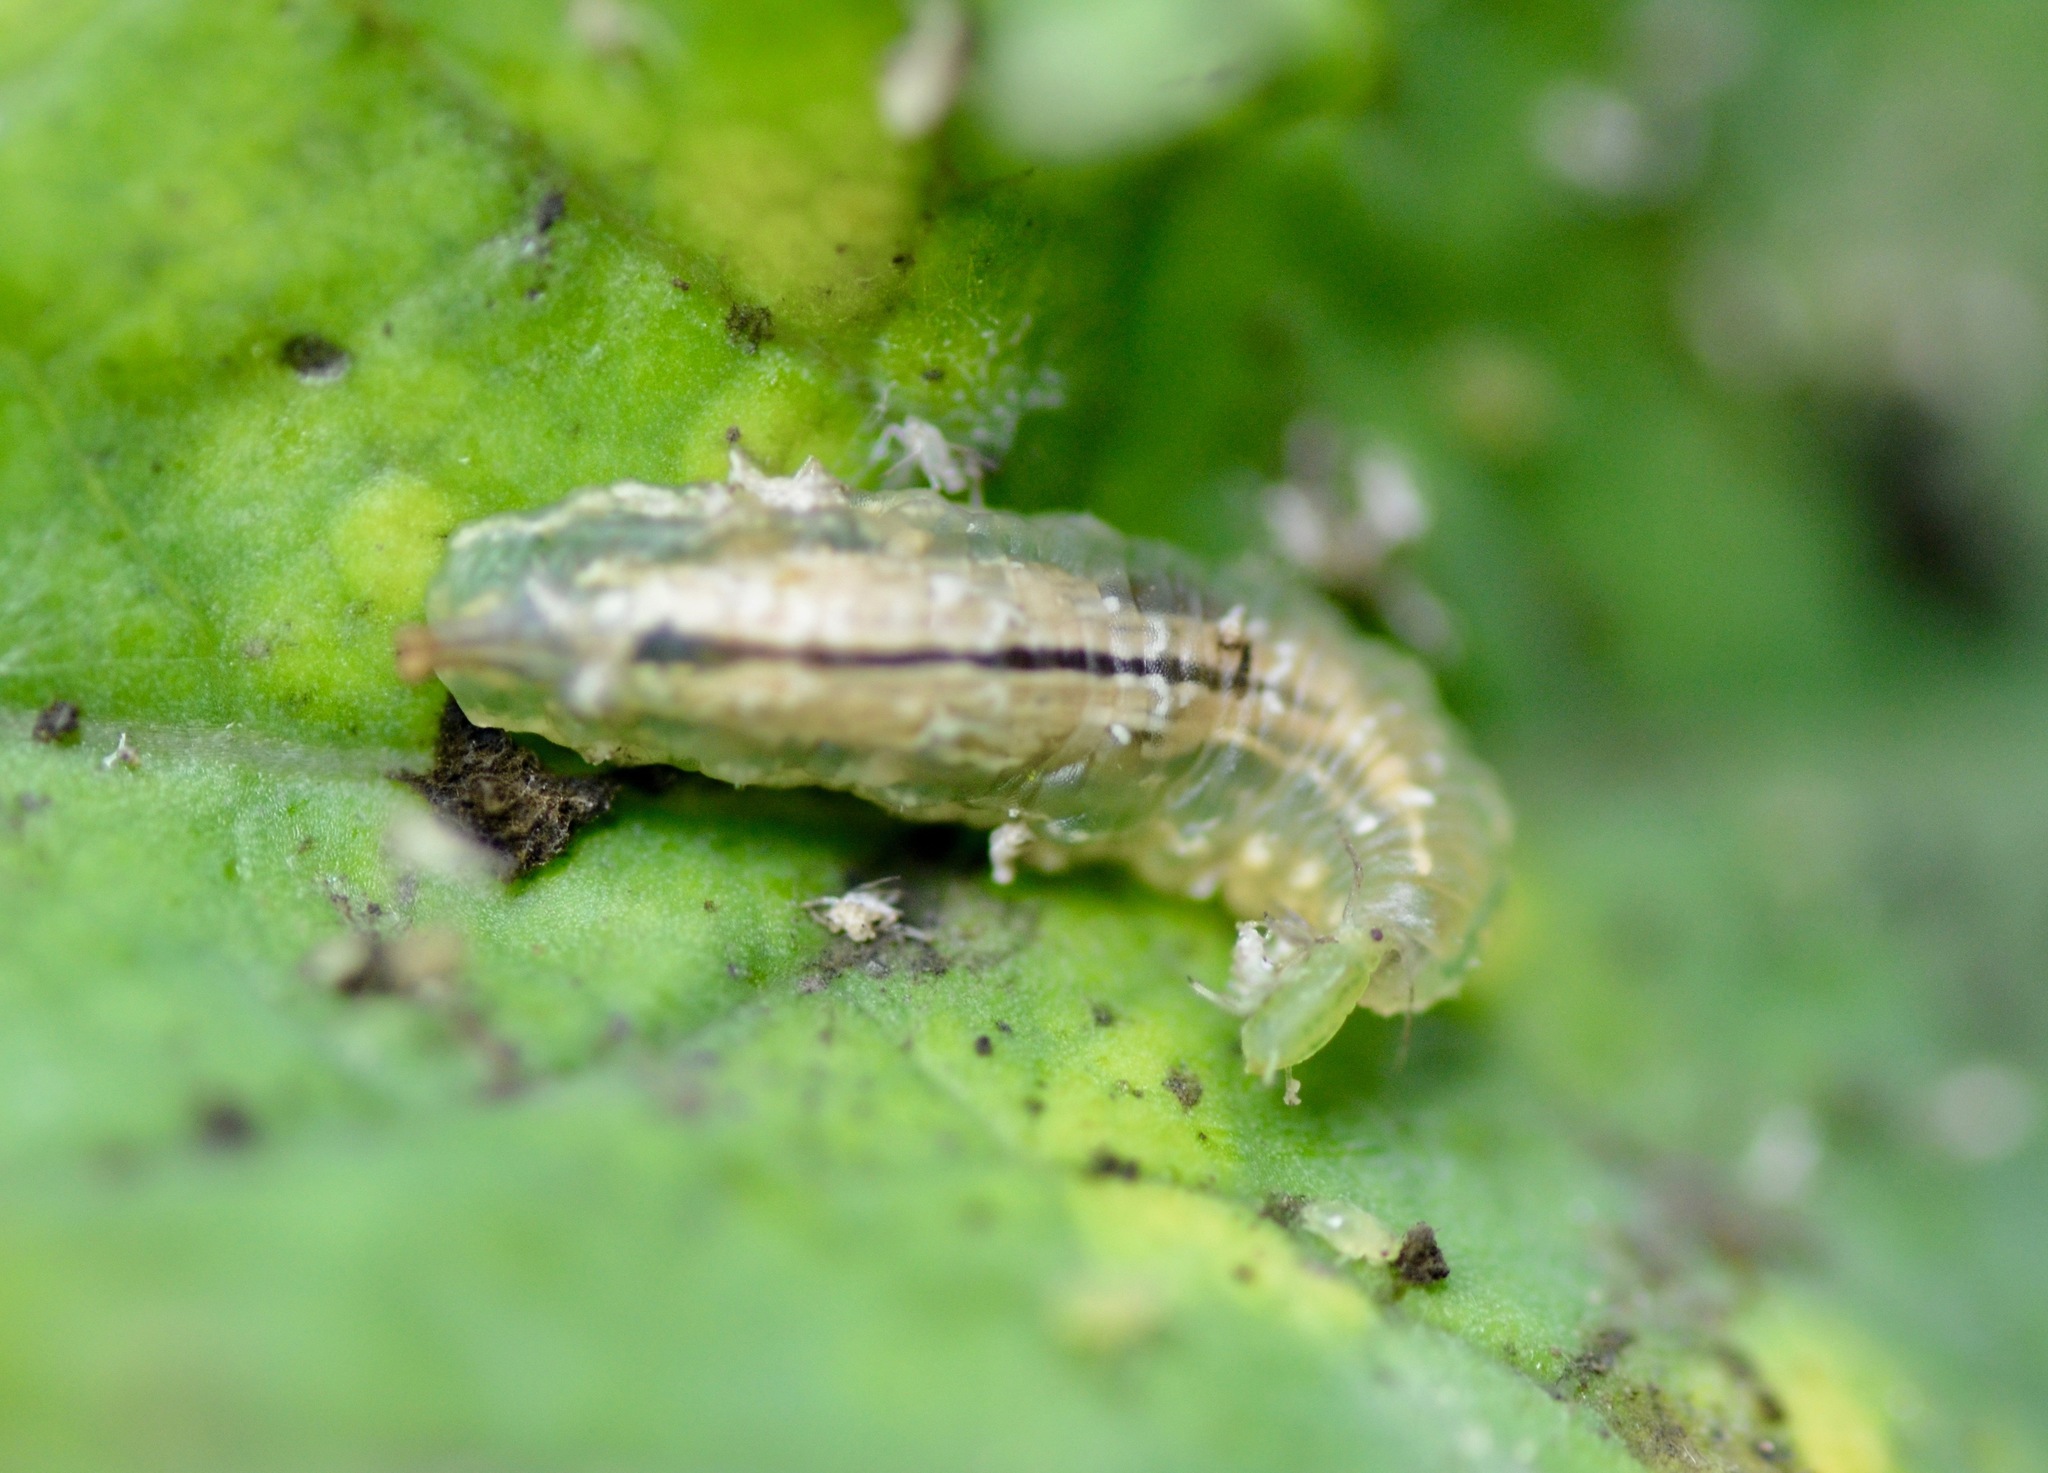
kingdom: Animalia
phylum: Arthropoda
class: Insecta
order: Diptera
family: Syrphidae
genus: Melangyna
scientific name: Melangyna novaezelandiae
